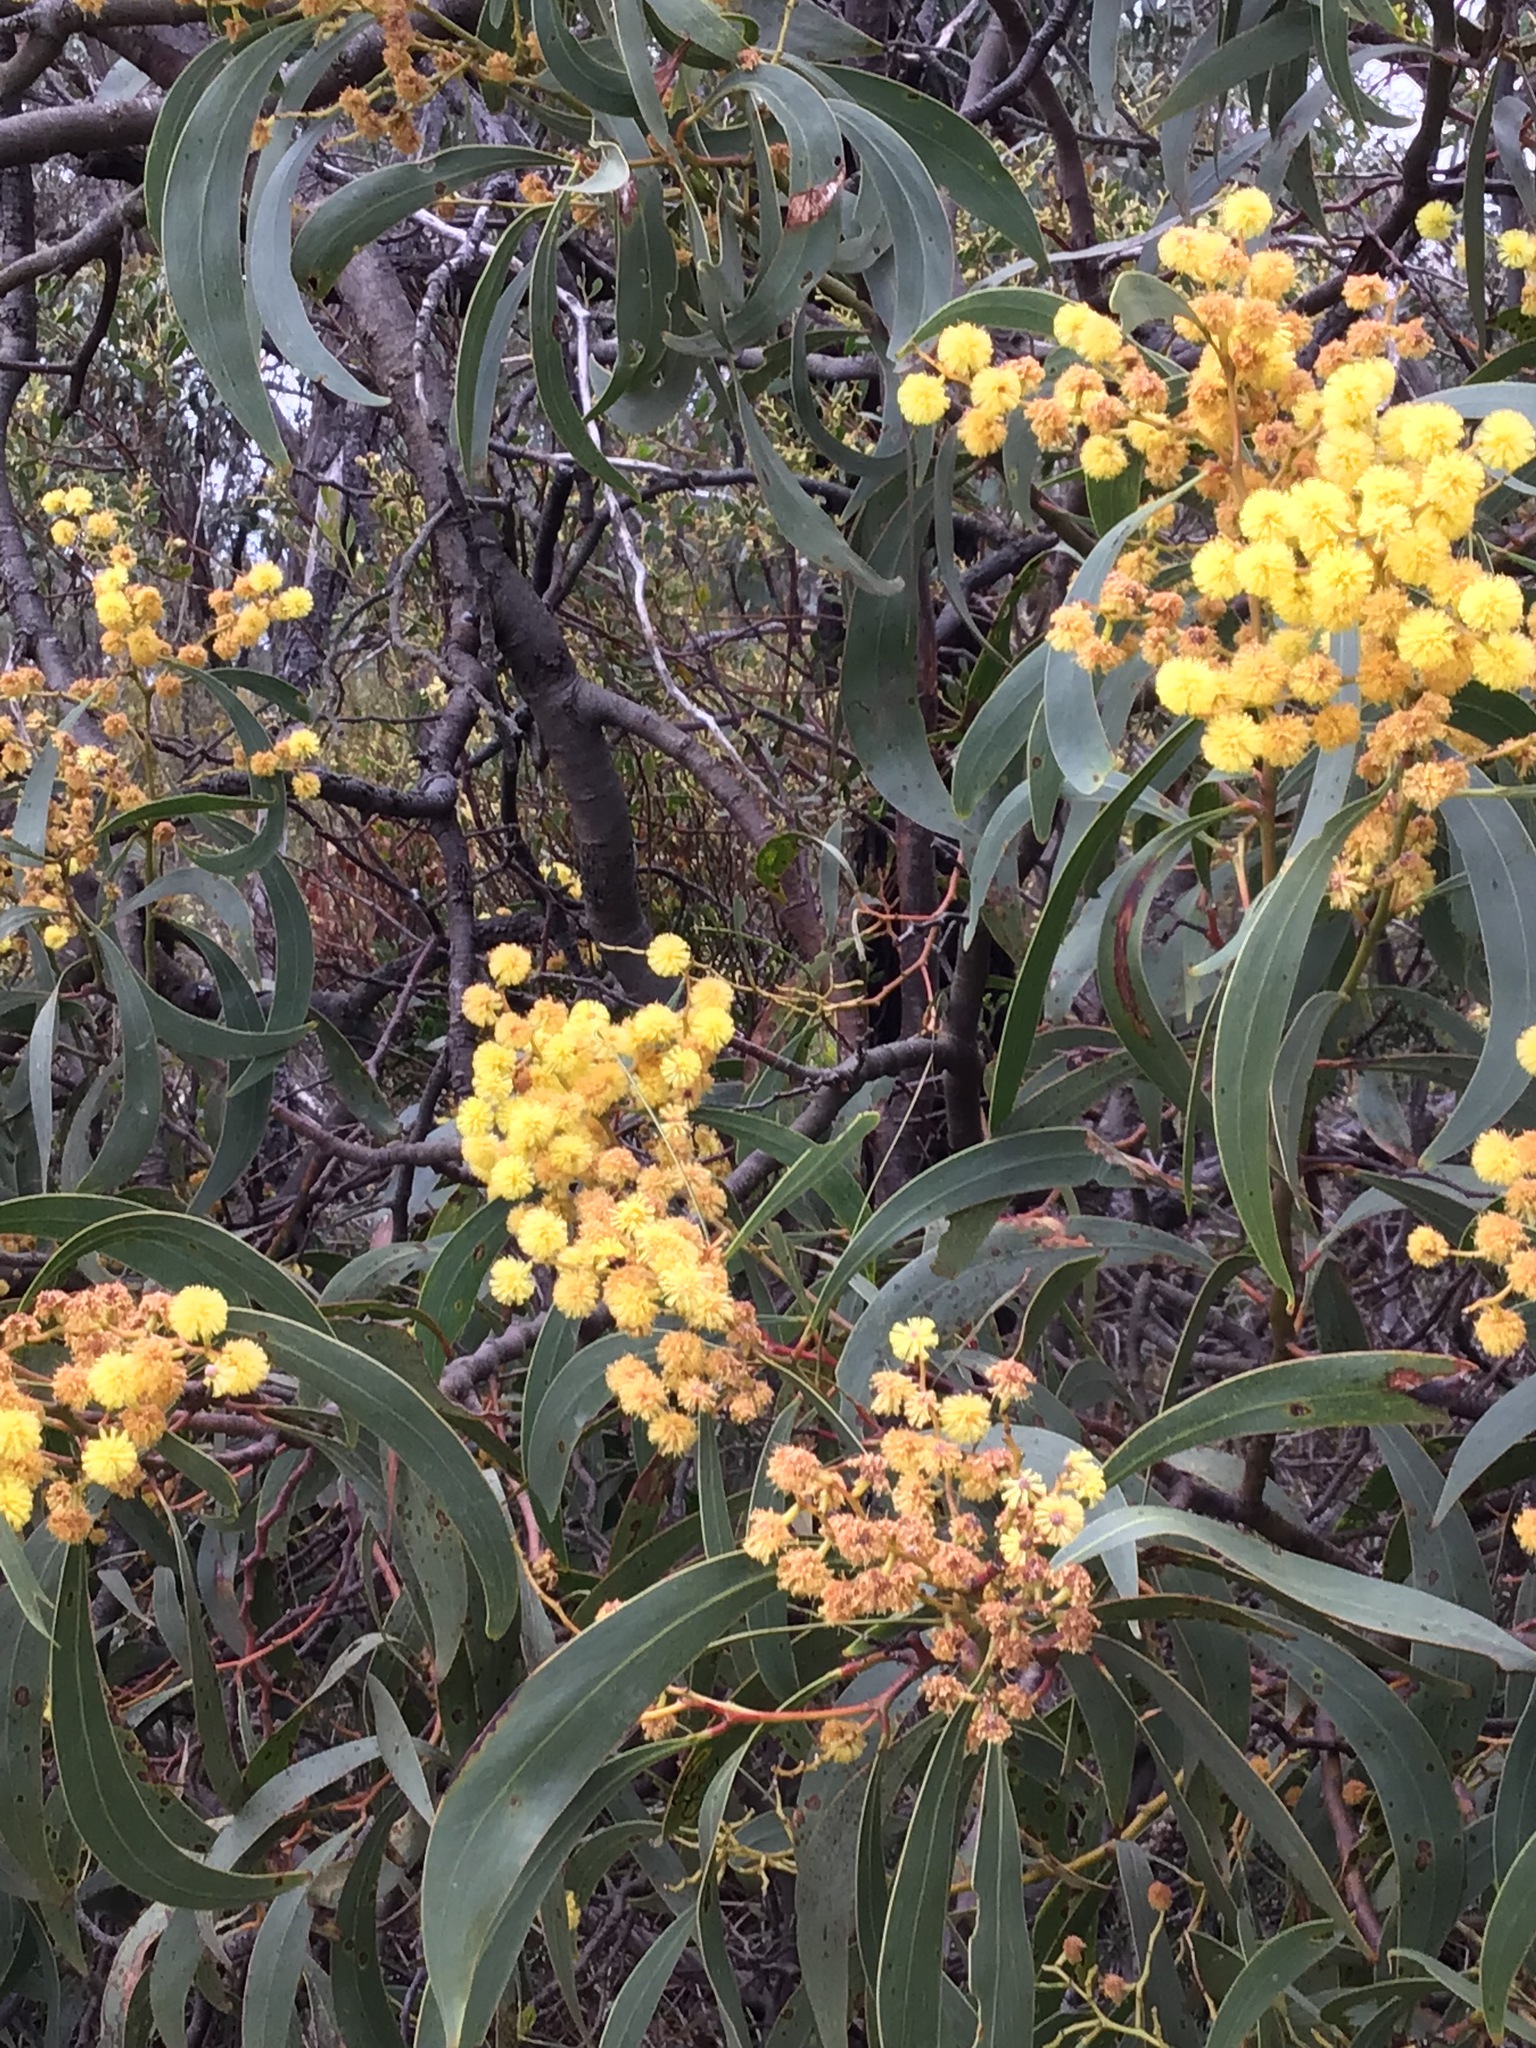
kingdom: Plantae
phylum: Tracheophyta
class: Magnoliopsida
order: Fabales
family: Fabaceae
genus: Acacia
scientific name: Acacia pycnantha
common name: Golden wattle
